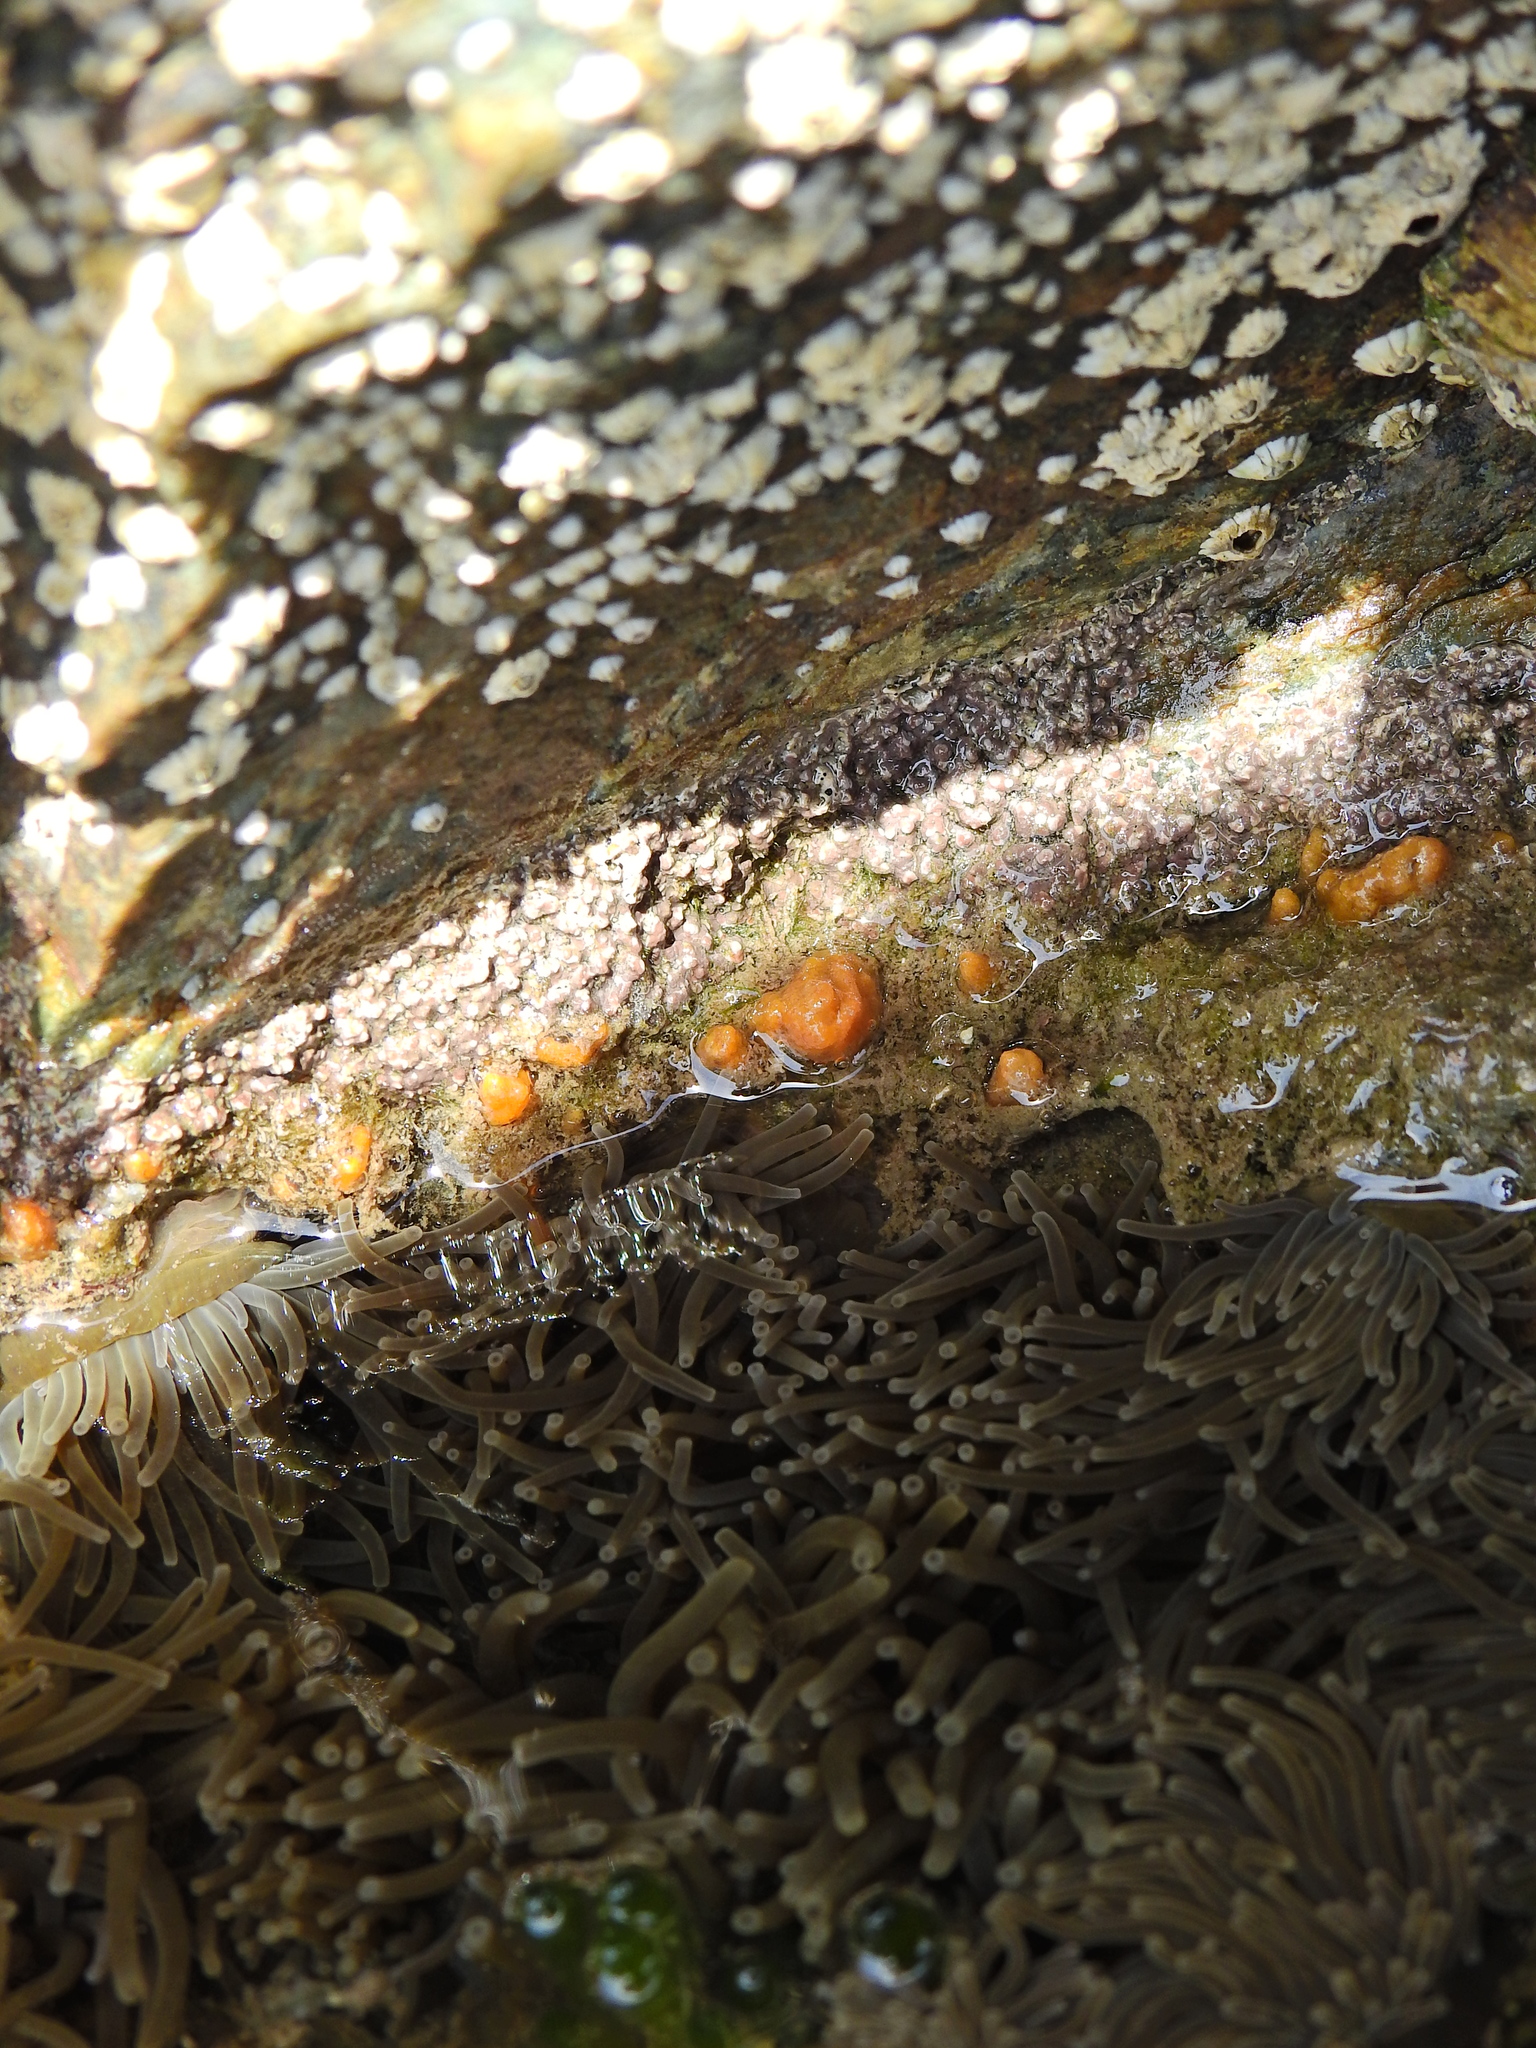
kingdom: Animalia
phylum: Porifera
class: Demospongiae
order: Suberitida
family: Halichondriidae
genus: Hymeniacidon
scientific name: Hymeniacidon perlevis
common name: Crumb-of-bread sponge
